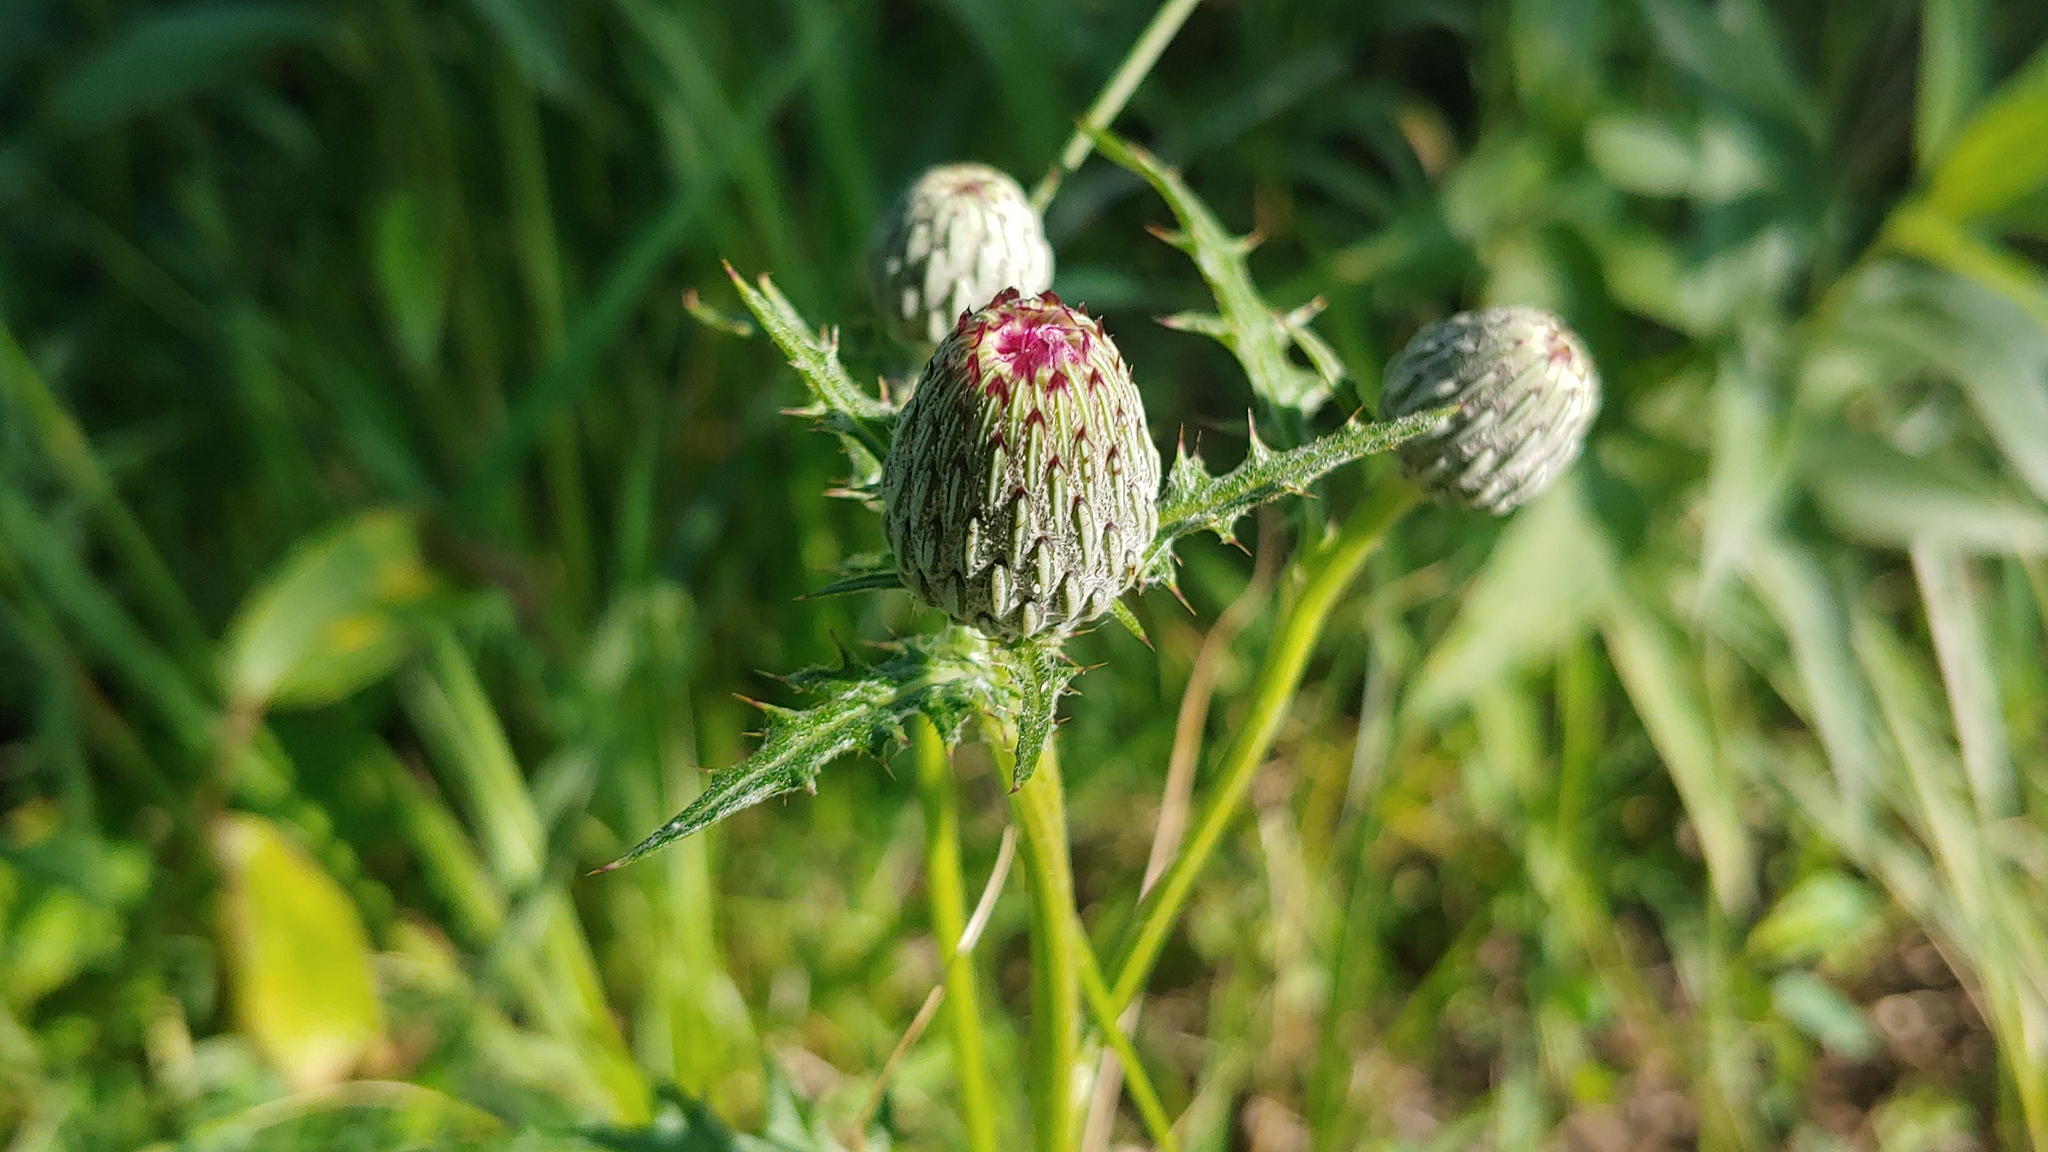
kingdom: Plantae
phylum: Tracheophyta
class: Magnoliopsida
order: Asterales
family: Asteraceae
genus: Cirsium
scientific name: Cirsium muticum
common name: Dunce-nettle
